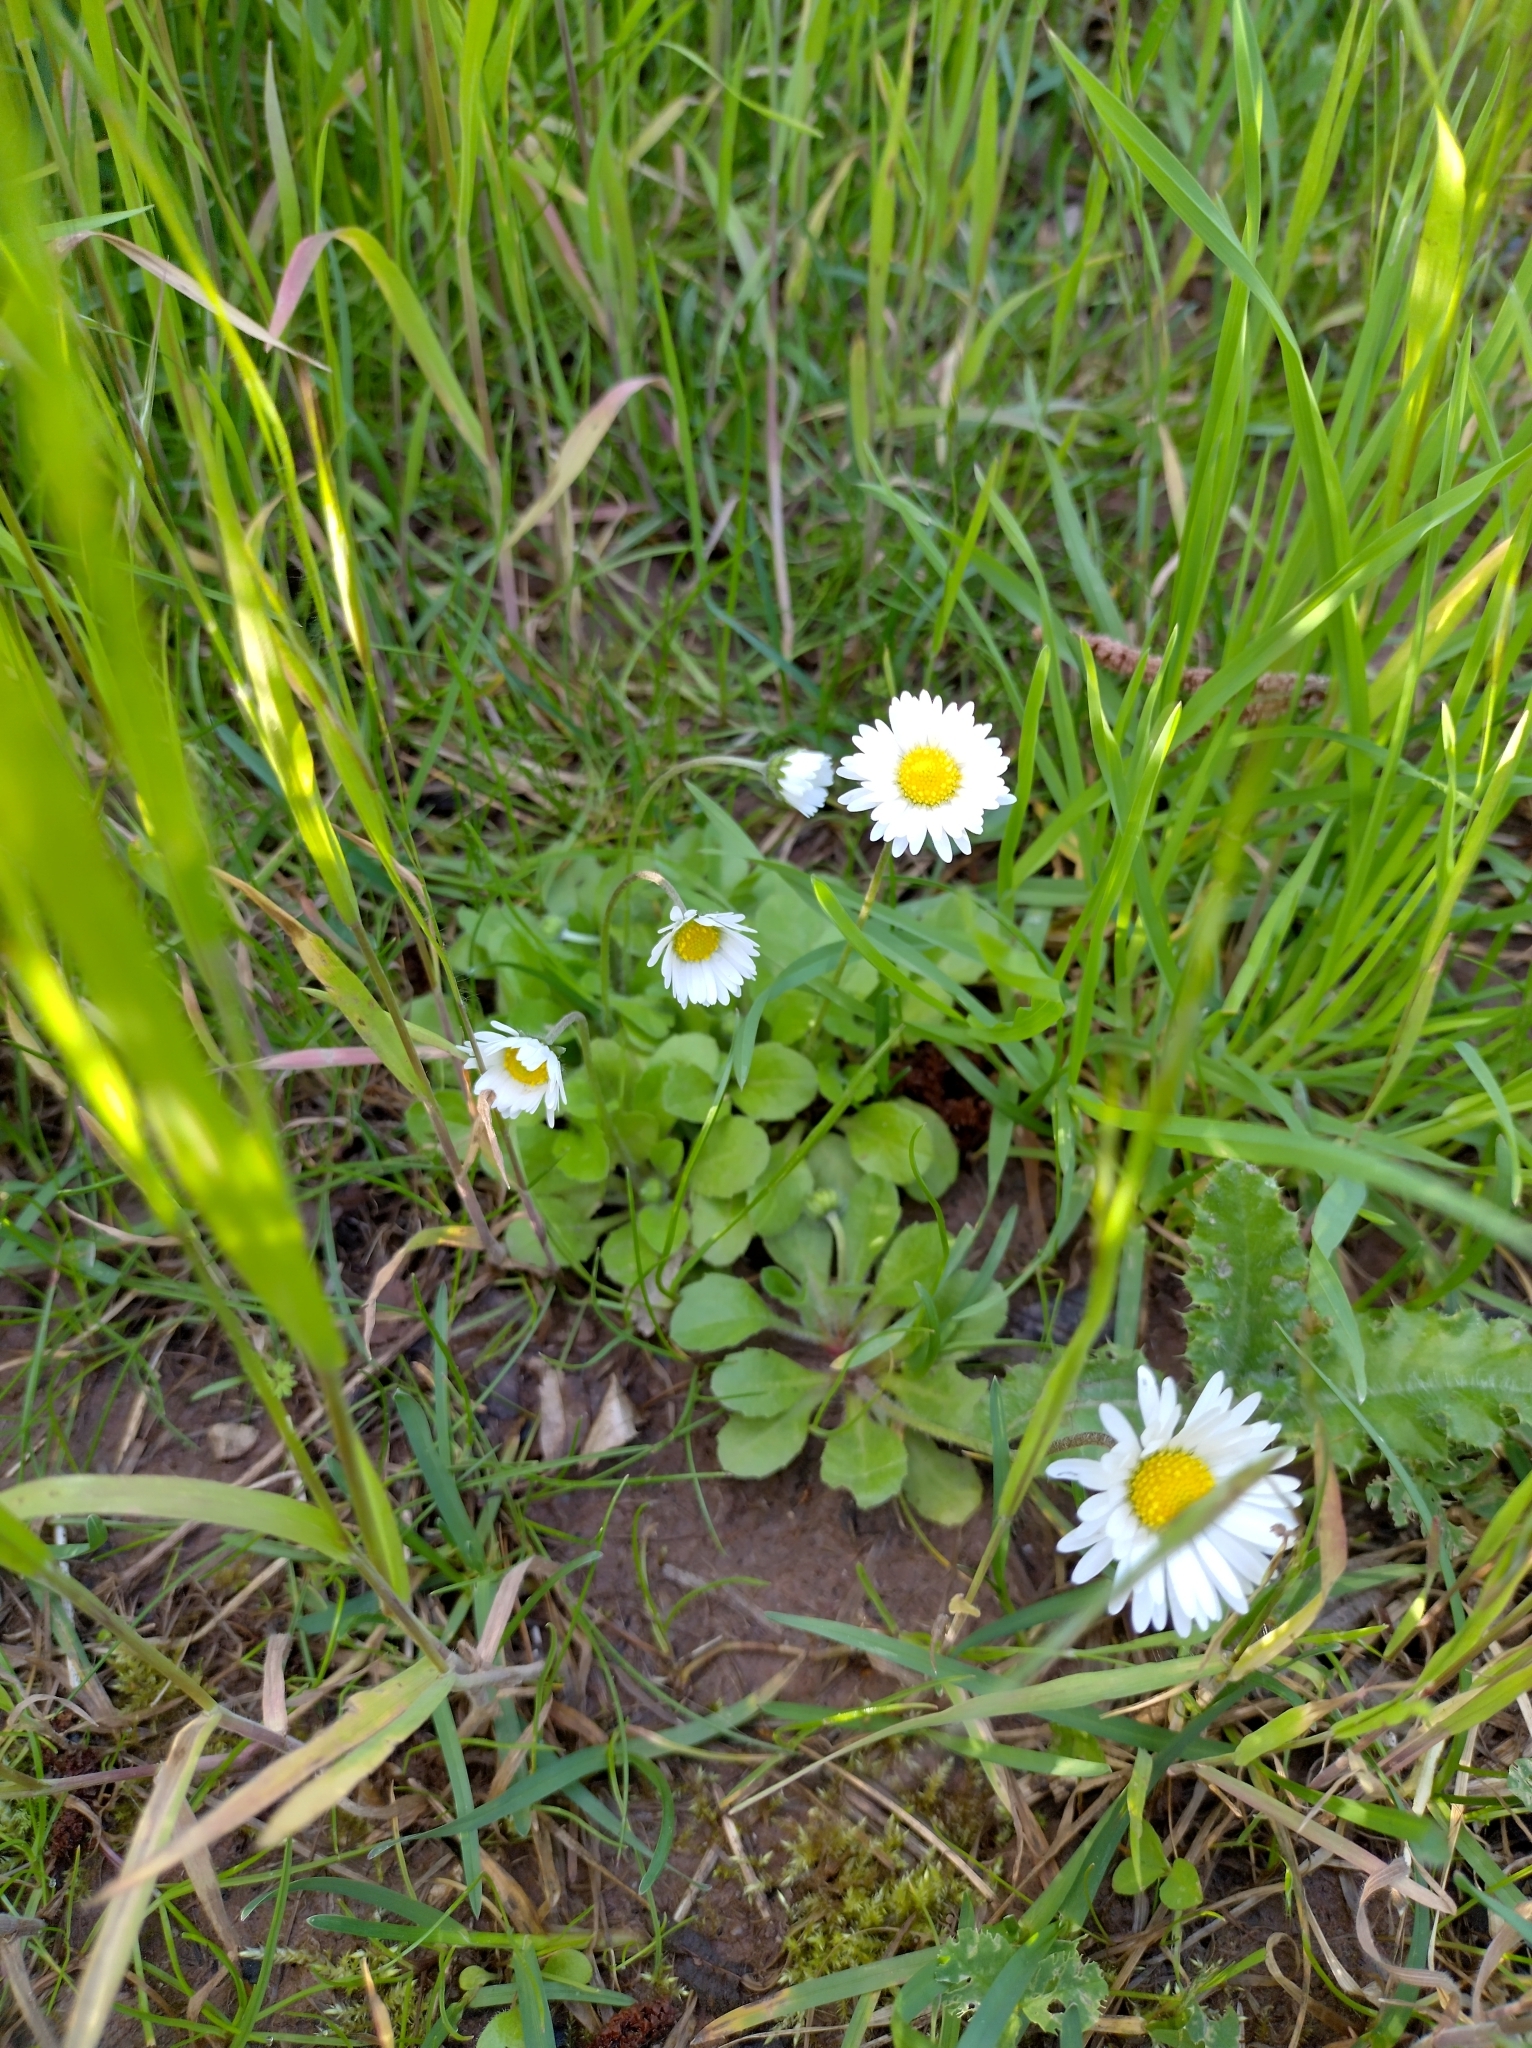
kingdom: Plantae
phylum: Tracheophyta
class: Magnoliopsida
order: Asterales
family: Asteraceae
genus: Bellis
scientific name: Bellis perennis
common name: Lawndaisy
